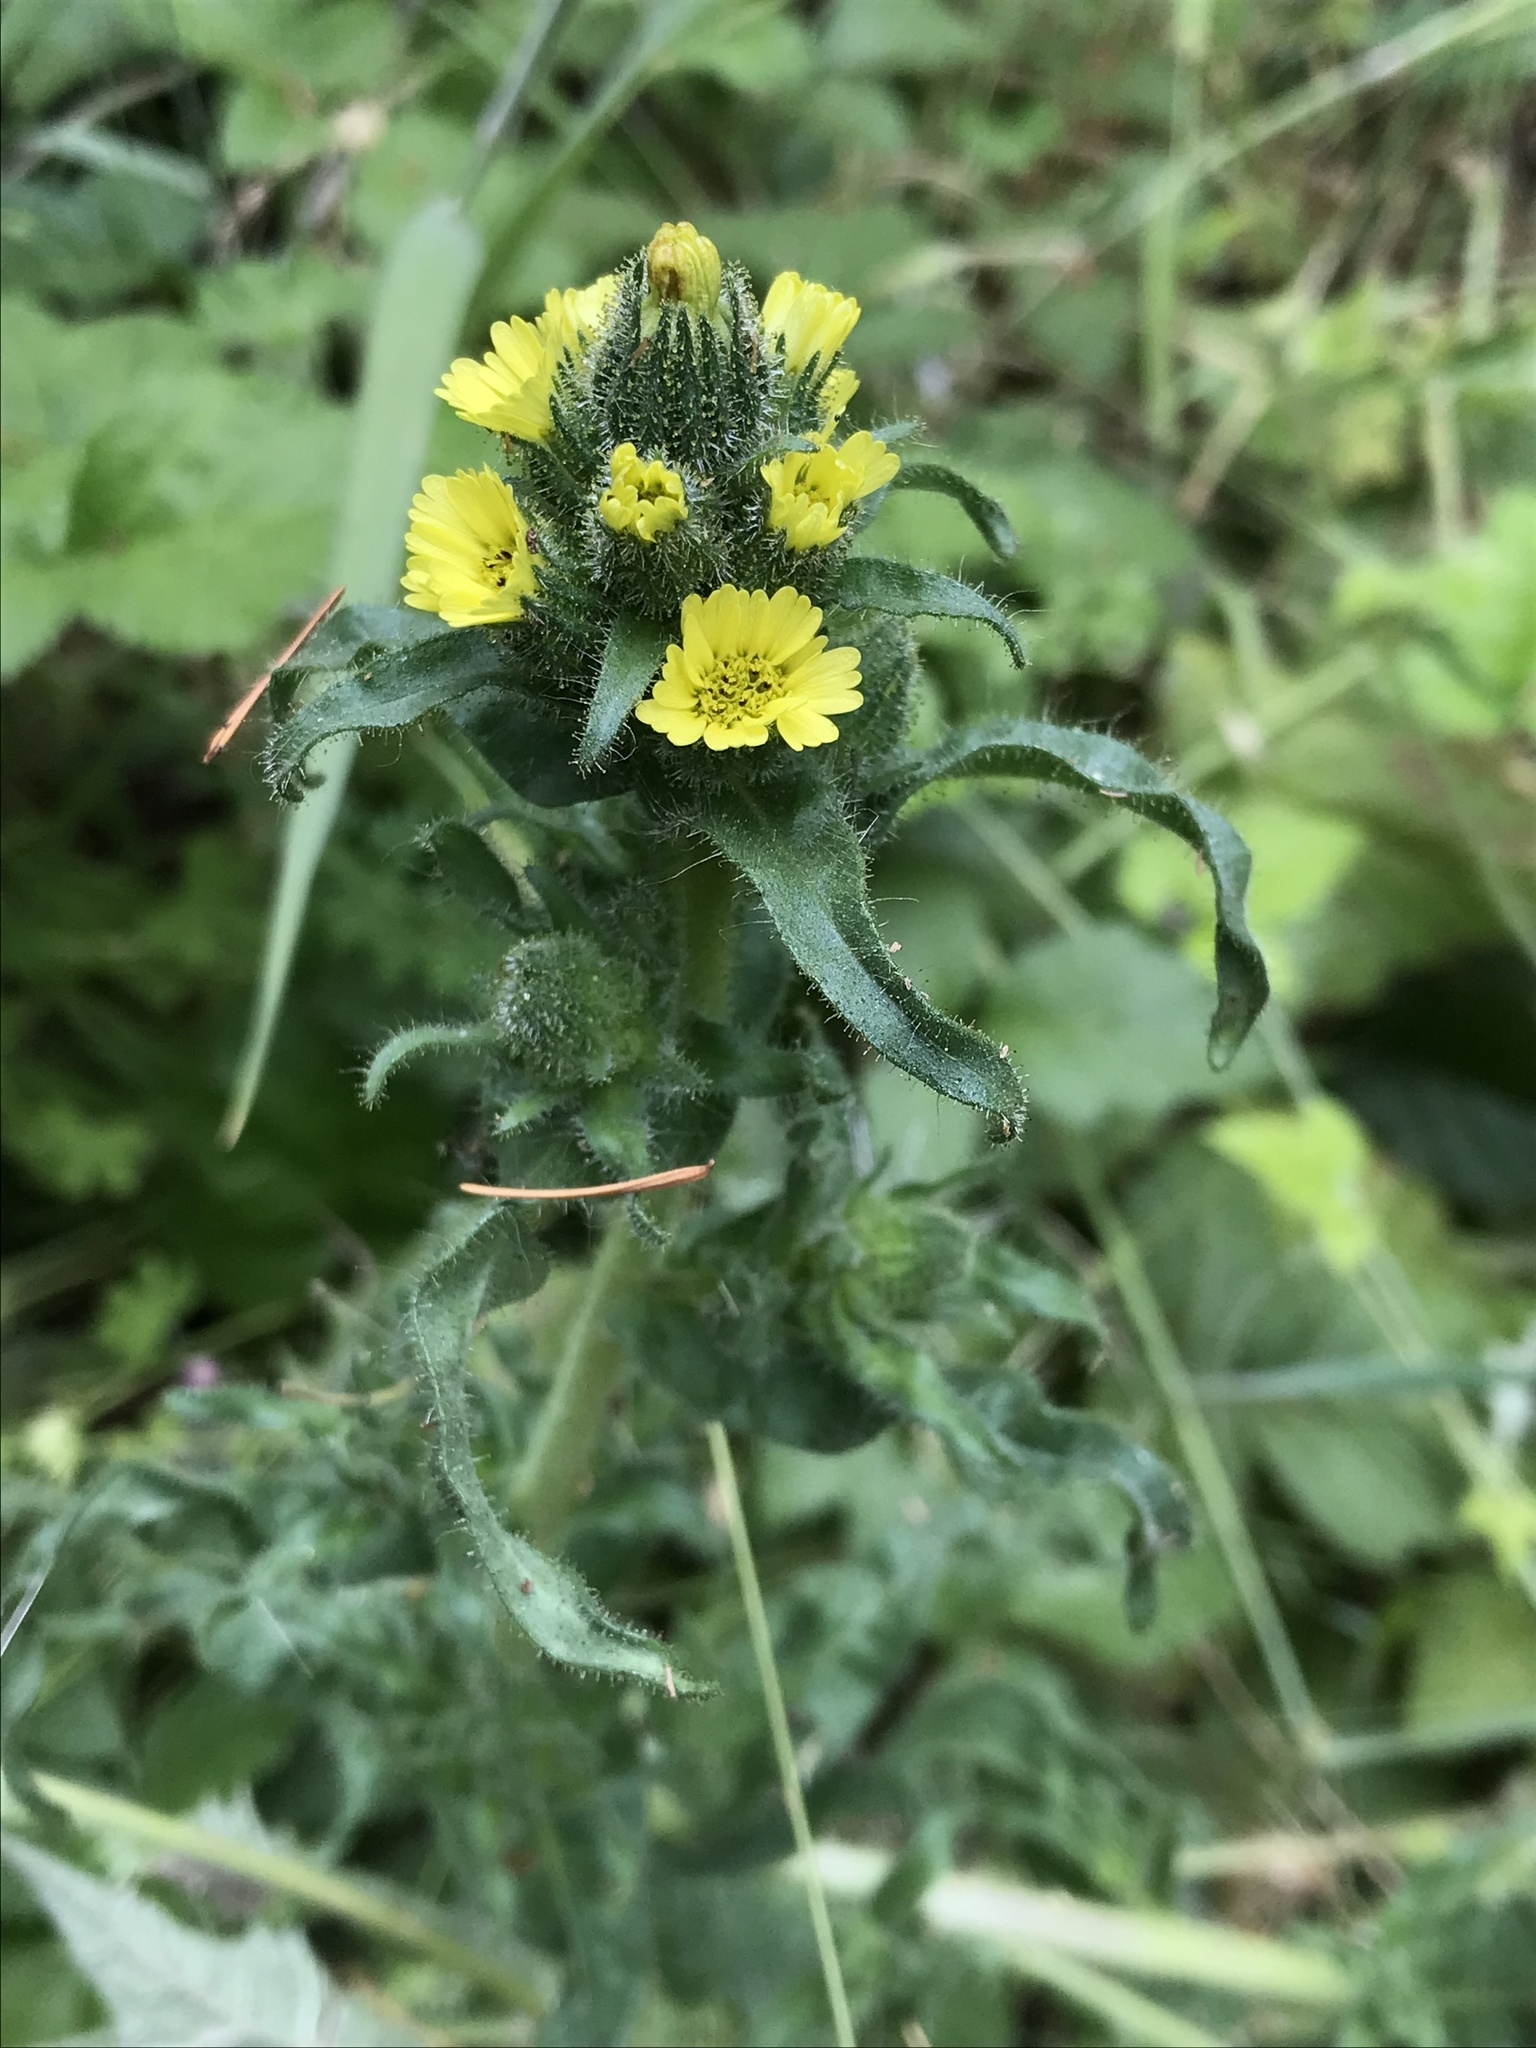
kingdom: Plantae
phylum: Tracheophyta
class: Magnoliopsida
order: Asterales
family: Asteraceae
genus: Madia
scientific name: Madia sativa
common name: Coast tarweed
